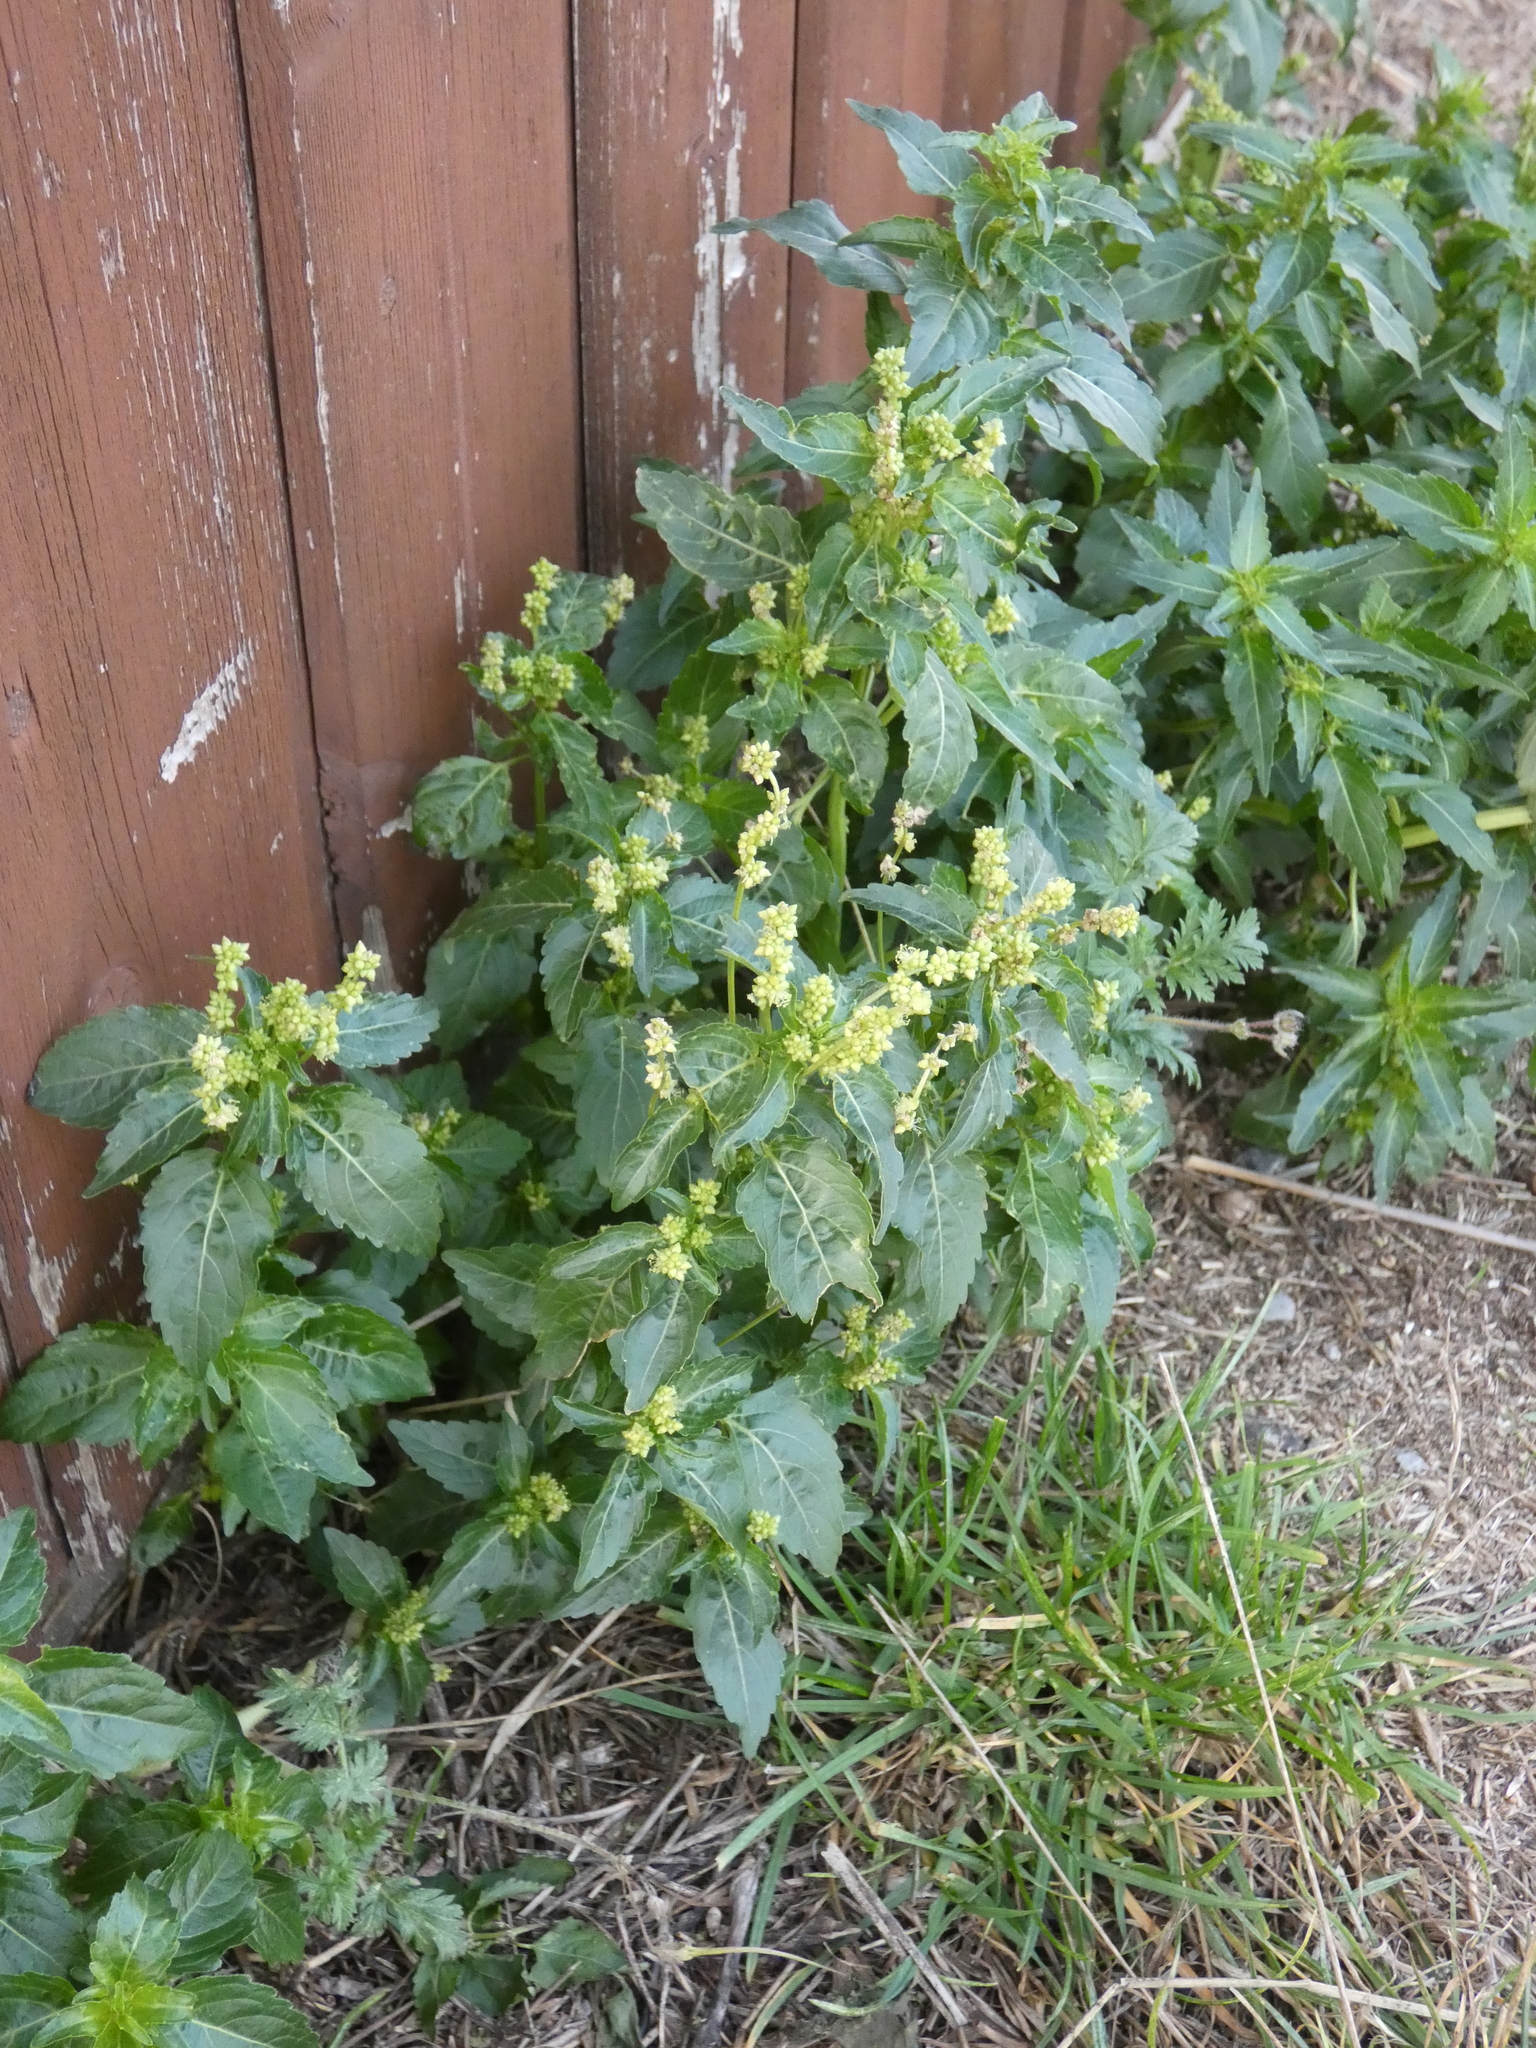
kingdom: Plantae
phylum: Tracheophyta
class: Magnoliopsida
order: Malpighiales
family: Euphorbiaceae
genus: Mercurialis
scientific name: Mercurialis annua
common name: Annual mercury
